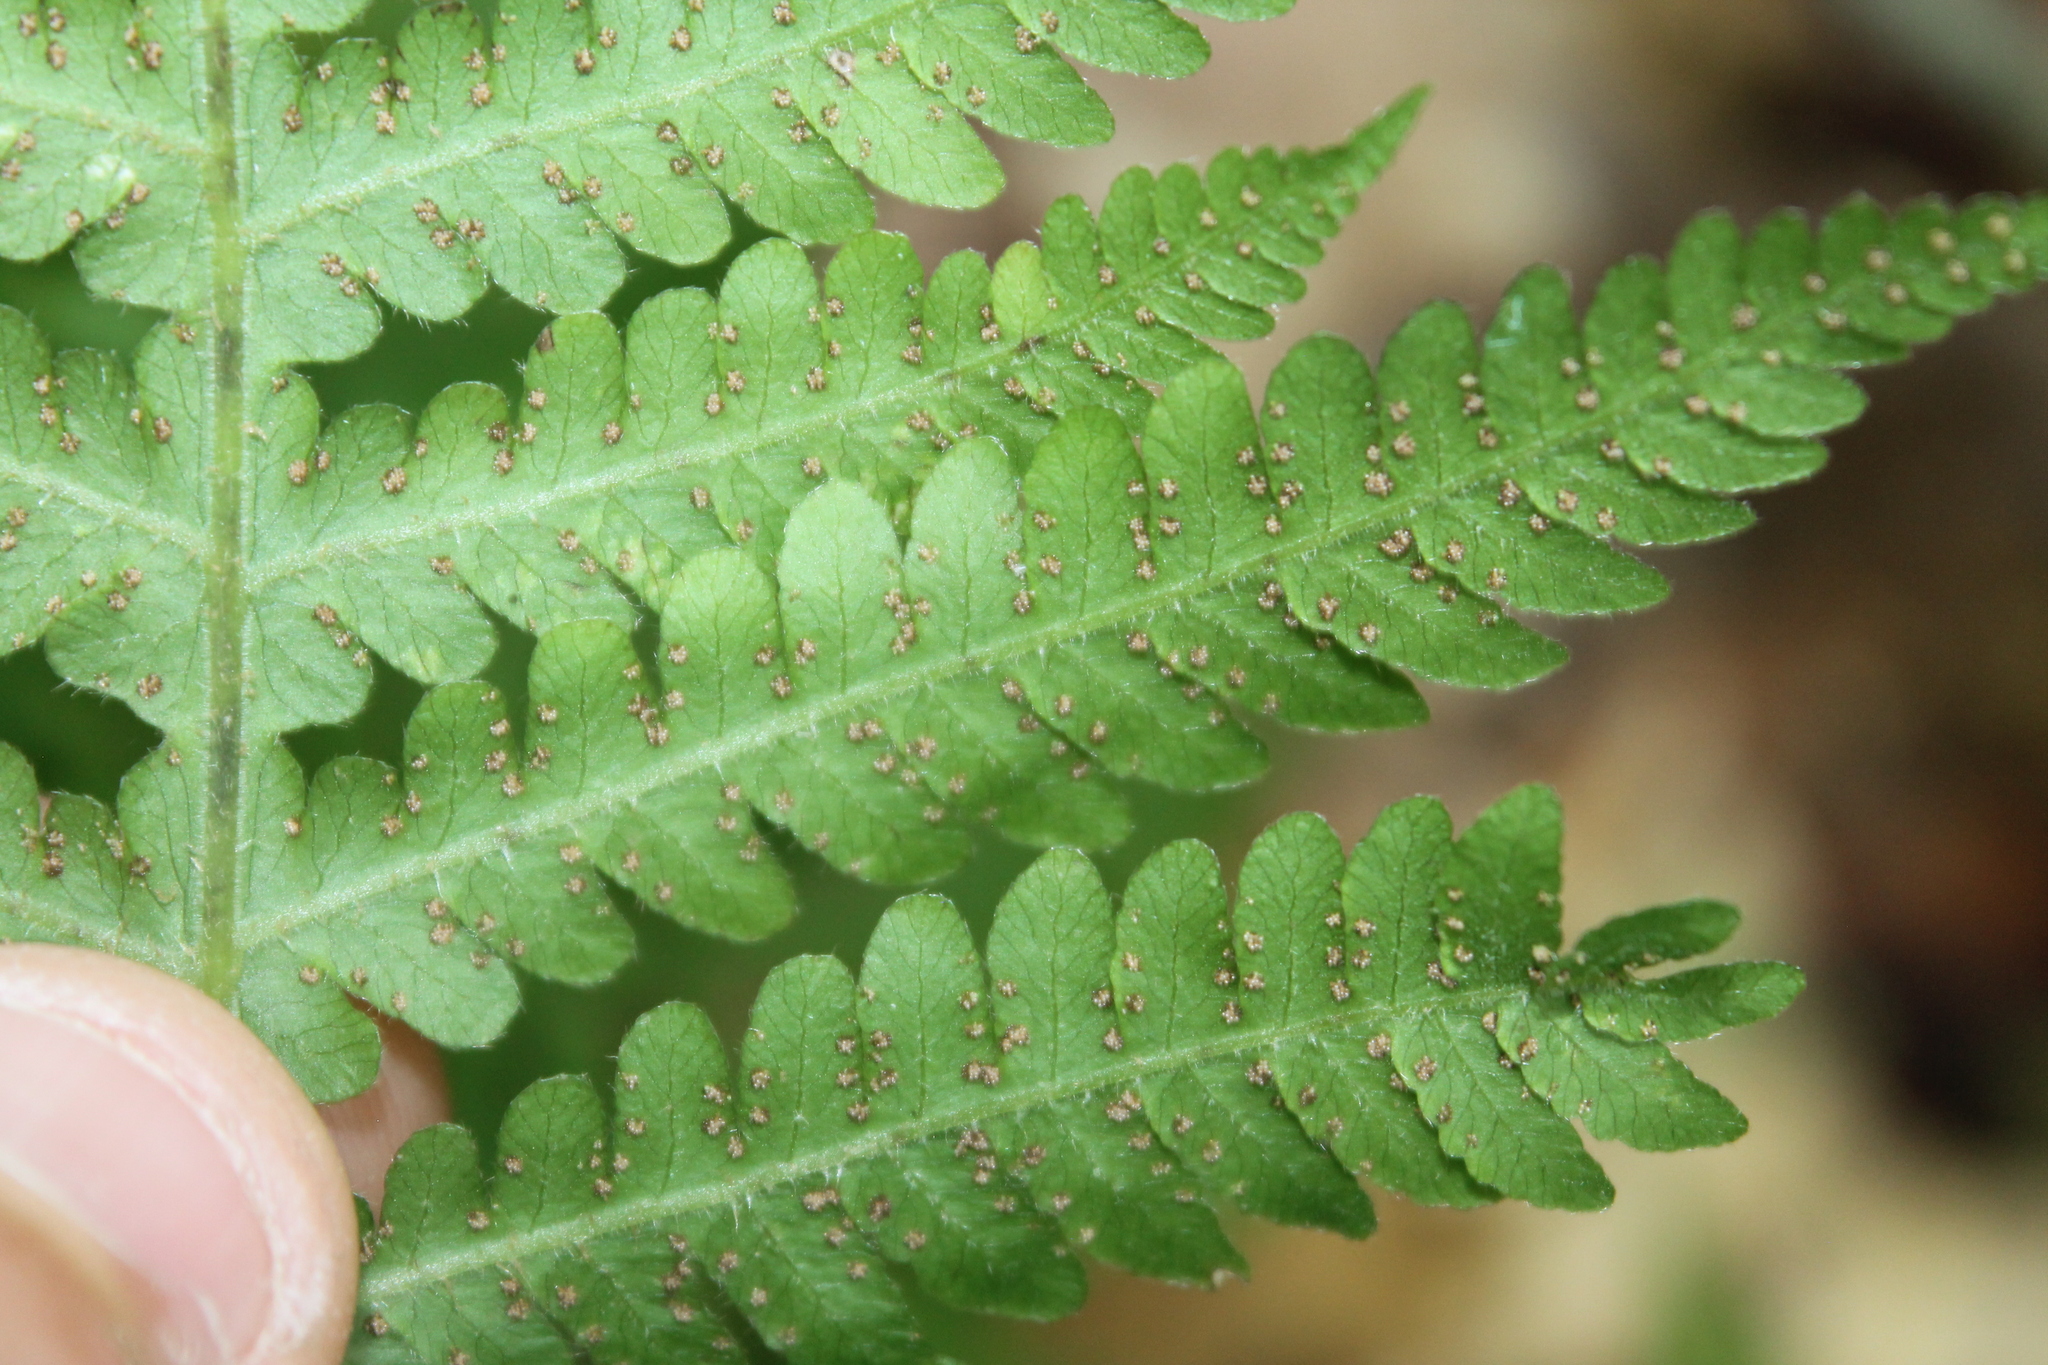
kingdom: Plantae
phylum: Tracheophyta
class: Polypodiopsida
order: Polypodiales
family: Thelypteridaceae
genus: Phegopteris
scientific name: Phegopteris hexagonoptera
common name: Broad beech fern
